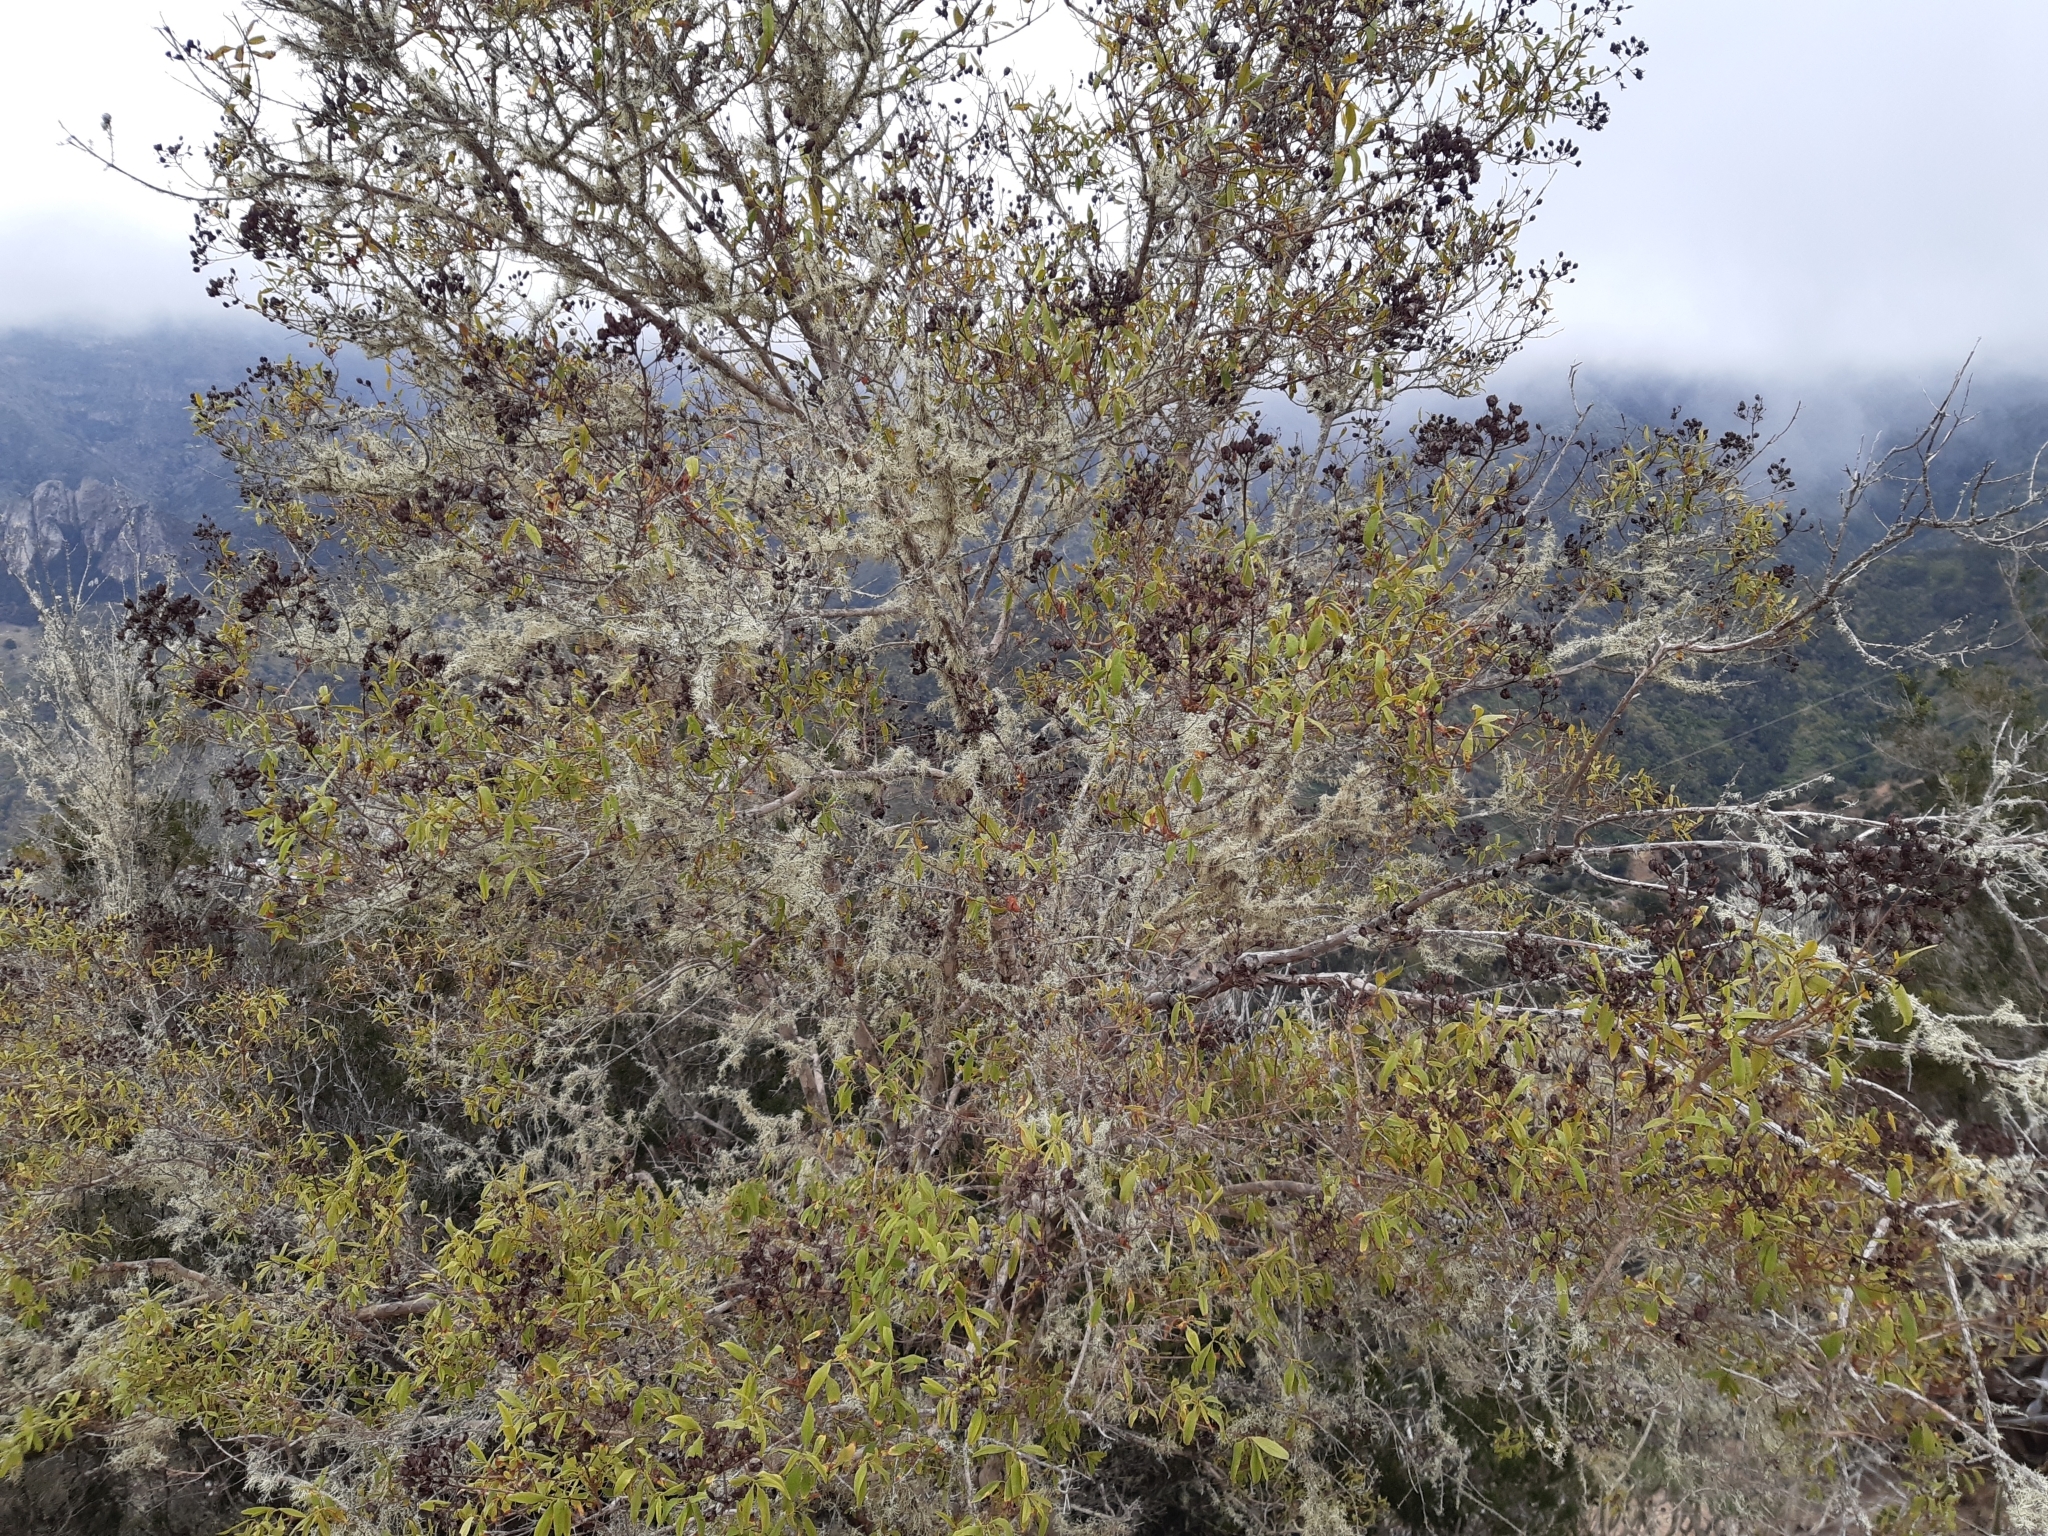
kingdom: Plantae
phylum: Tracheophyta
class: Magnoliopsida
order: Malpighiales
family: Hypericaceae
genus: Hypericum
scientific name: Hypericum canariense
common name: Canary island st. johnswort
